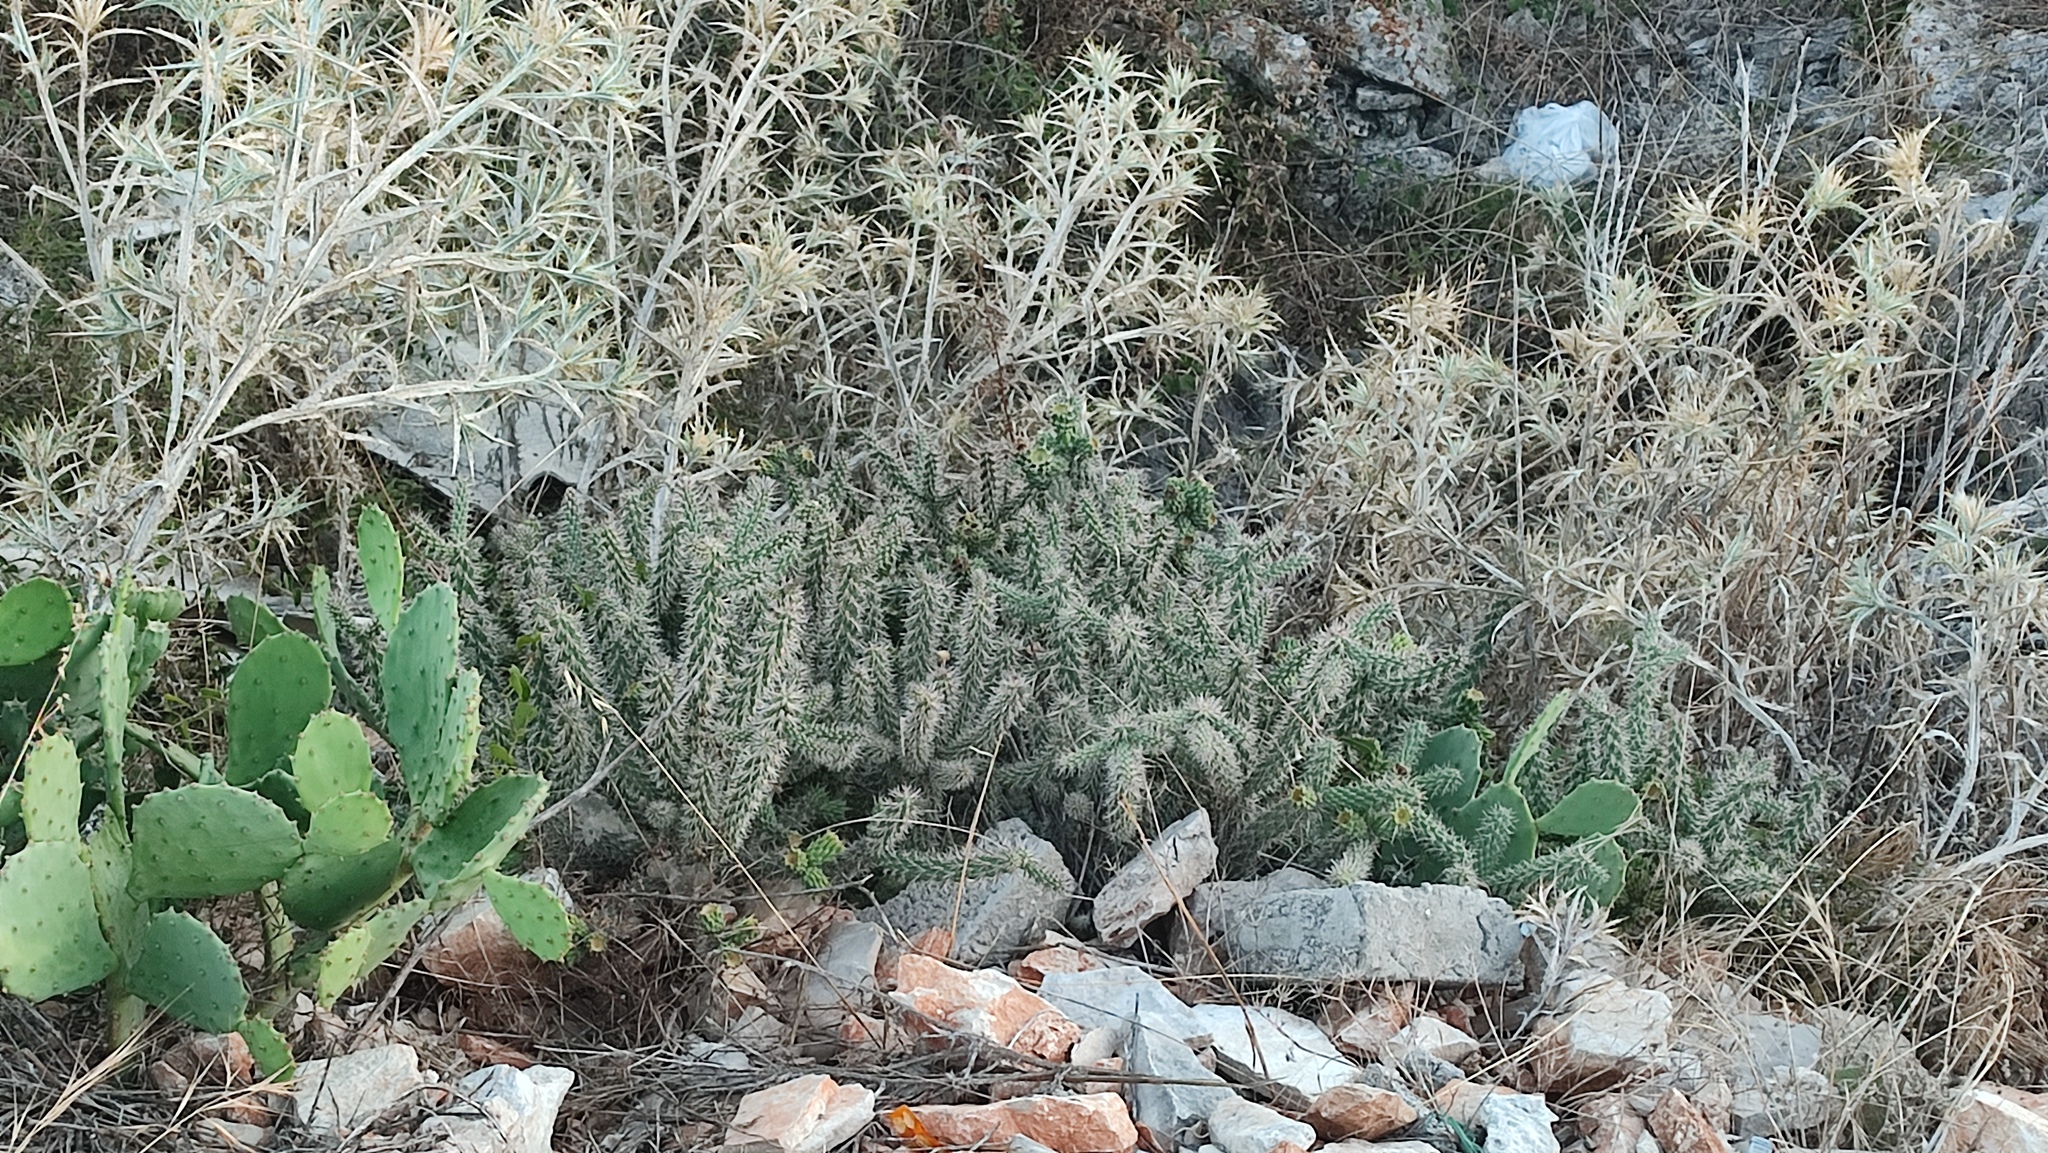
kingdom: Plantae
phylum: Tracheophyta
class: Magnoliopsida
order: Caryophyllales
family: Cactaceae
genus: Cylindropuntia
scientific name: Cylindropuntia imbricata
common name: Candelabrum cactus
